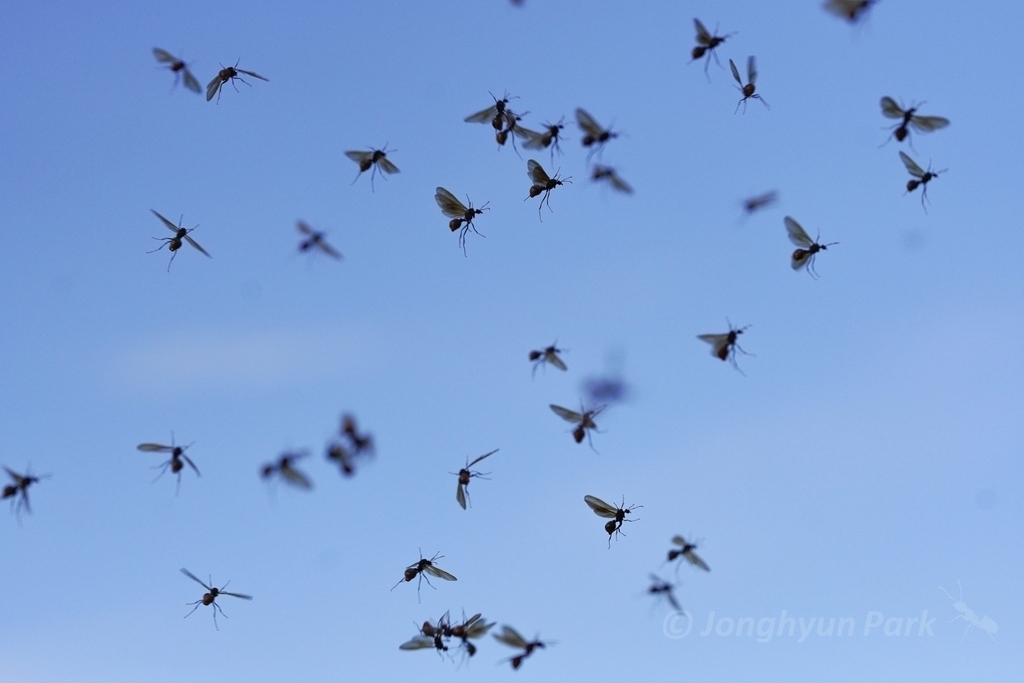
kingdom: Animalia
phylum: Arthropoda
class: Insecta
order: Hymenoptera
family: Formicidae
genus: Acromyrmex
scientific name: Acromyrmex versicolor
